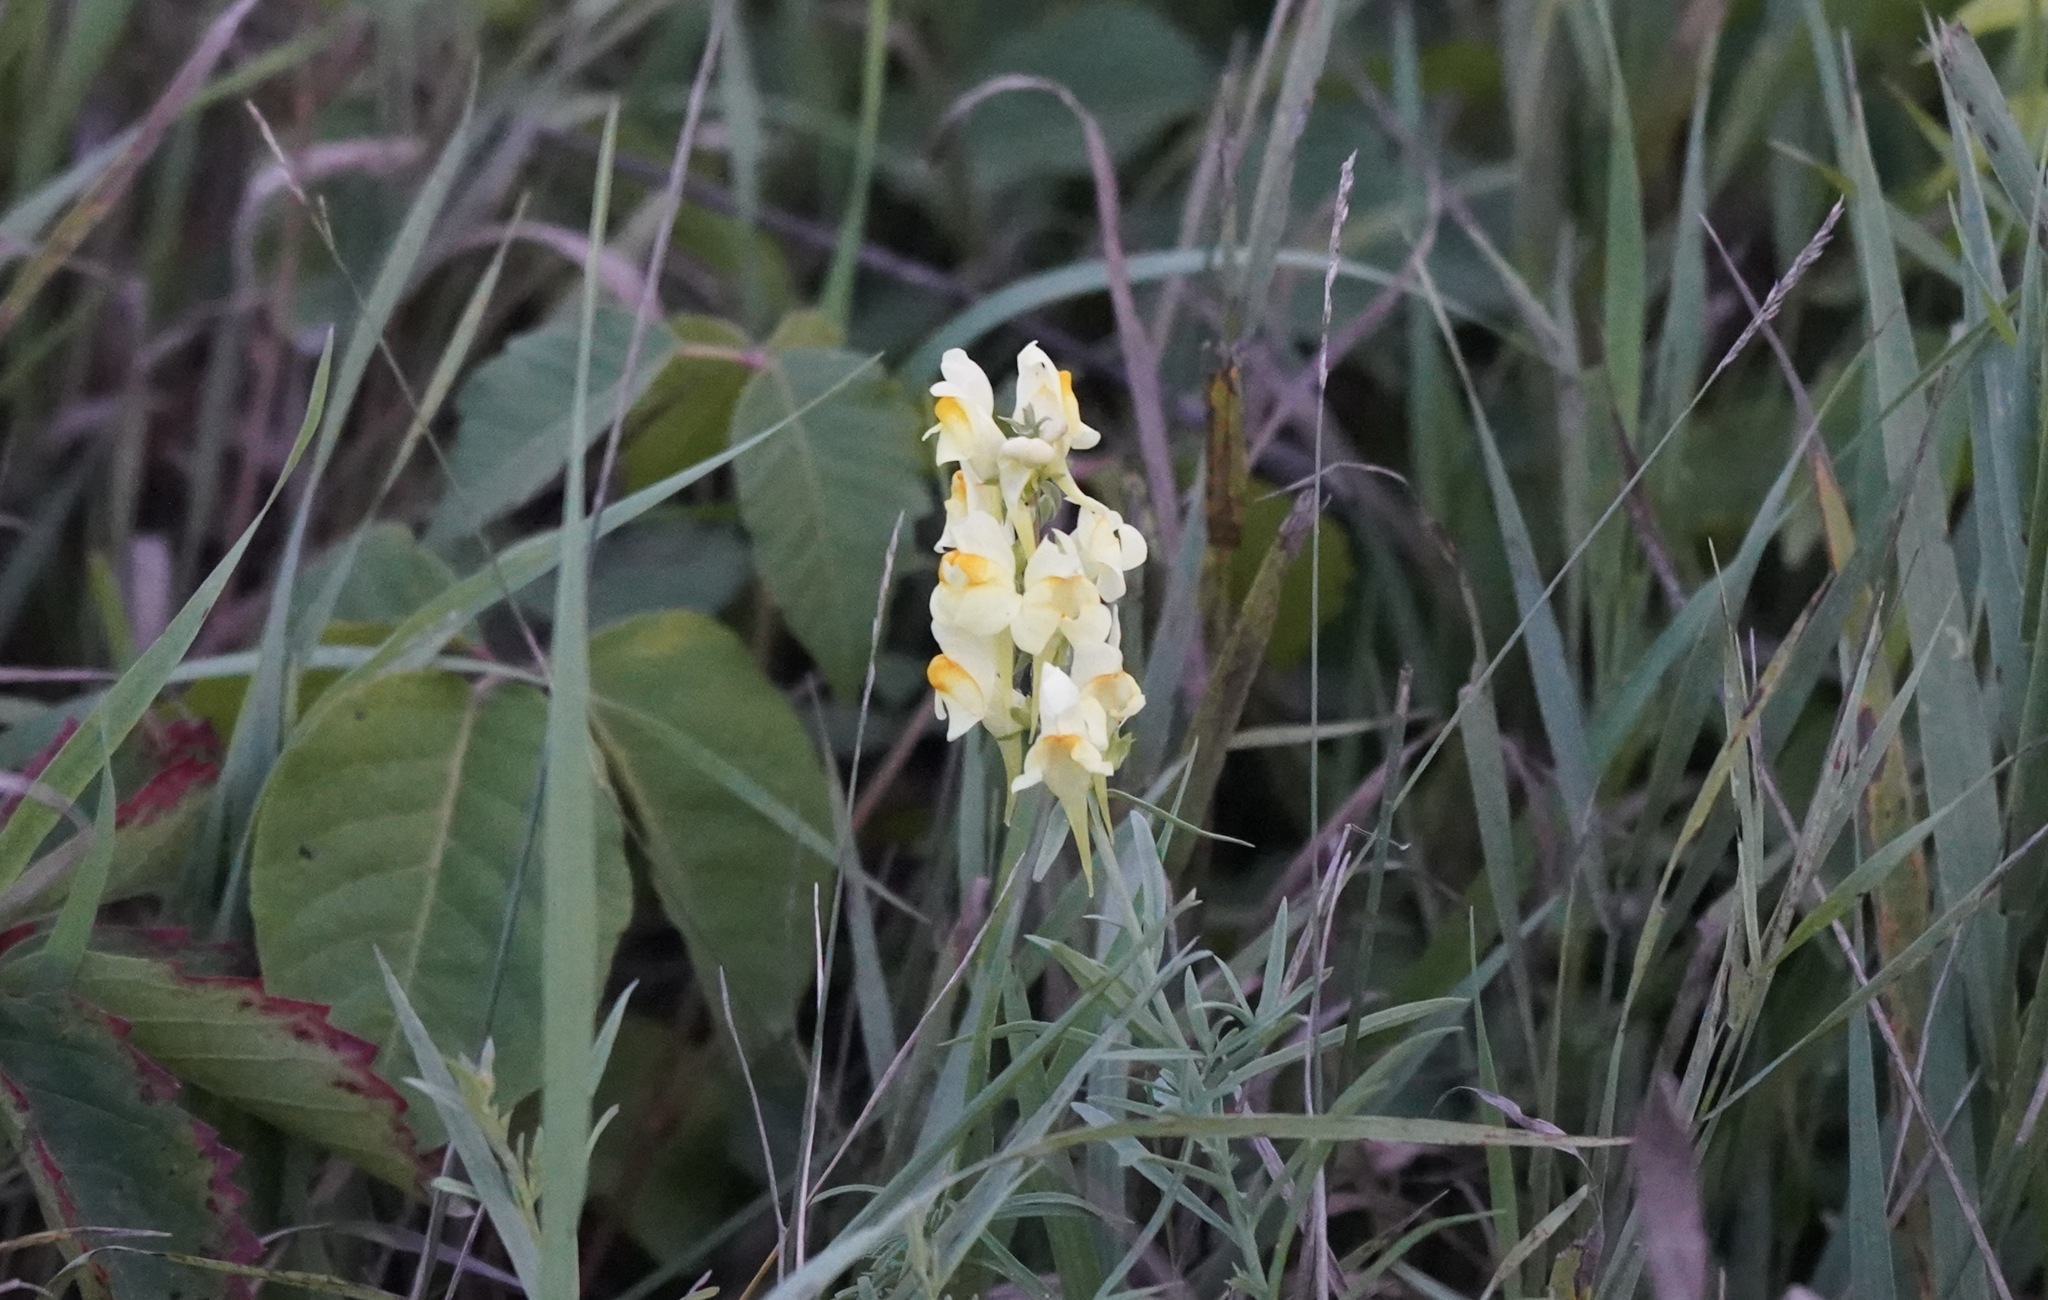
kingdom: Plantae
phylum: Tracheophyta
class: Magnoliopsida
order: Lamiales
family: Plantaginaceae
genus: Linaria
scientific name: Linaria vulgaris
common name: Butter and eggs
